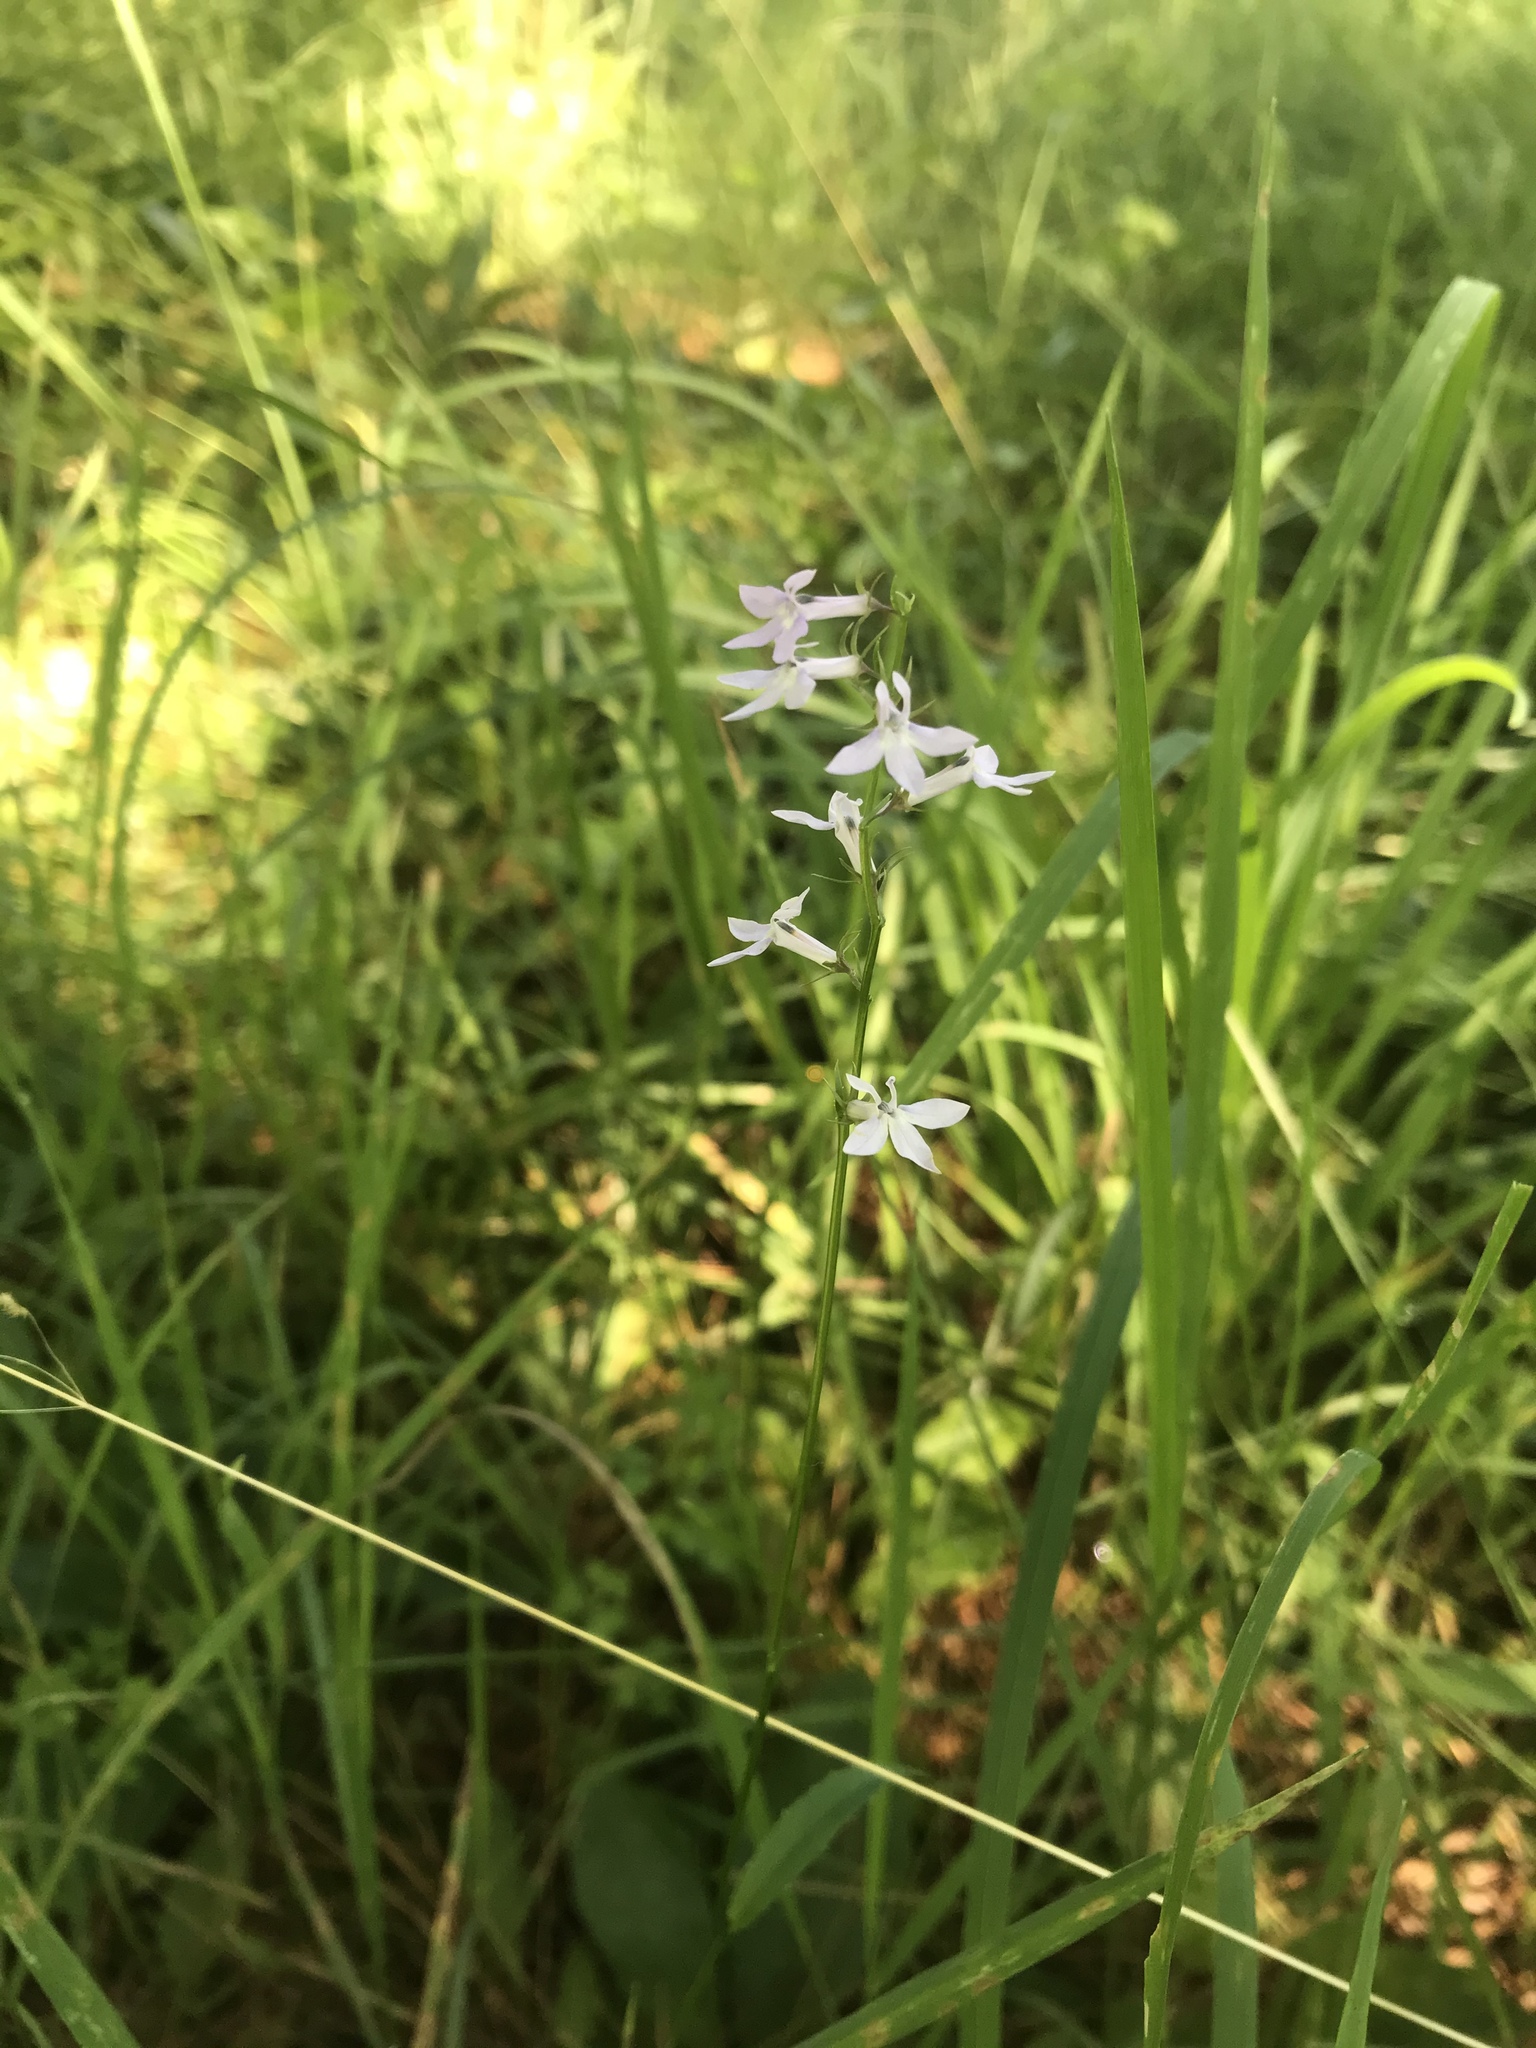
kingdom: Plantae
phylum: Tracheophyta
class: Magnoliopsida
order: Asterales
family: Campanulaceae
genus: Lobelia
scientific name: Lobelia spicata
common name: Pale-spike lobelia
